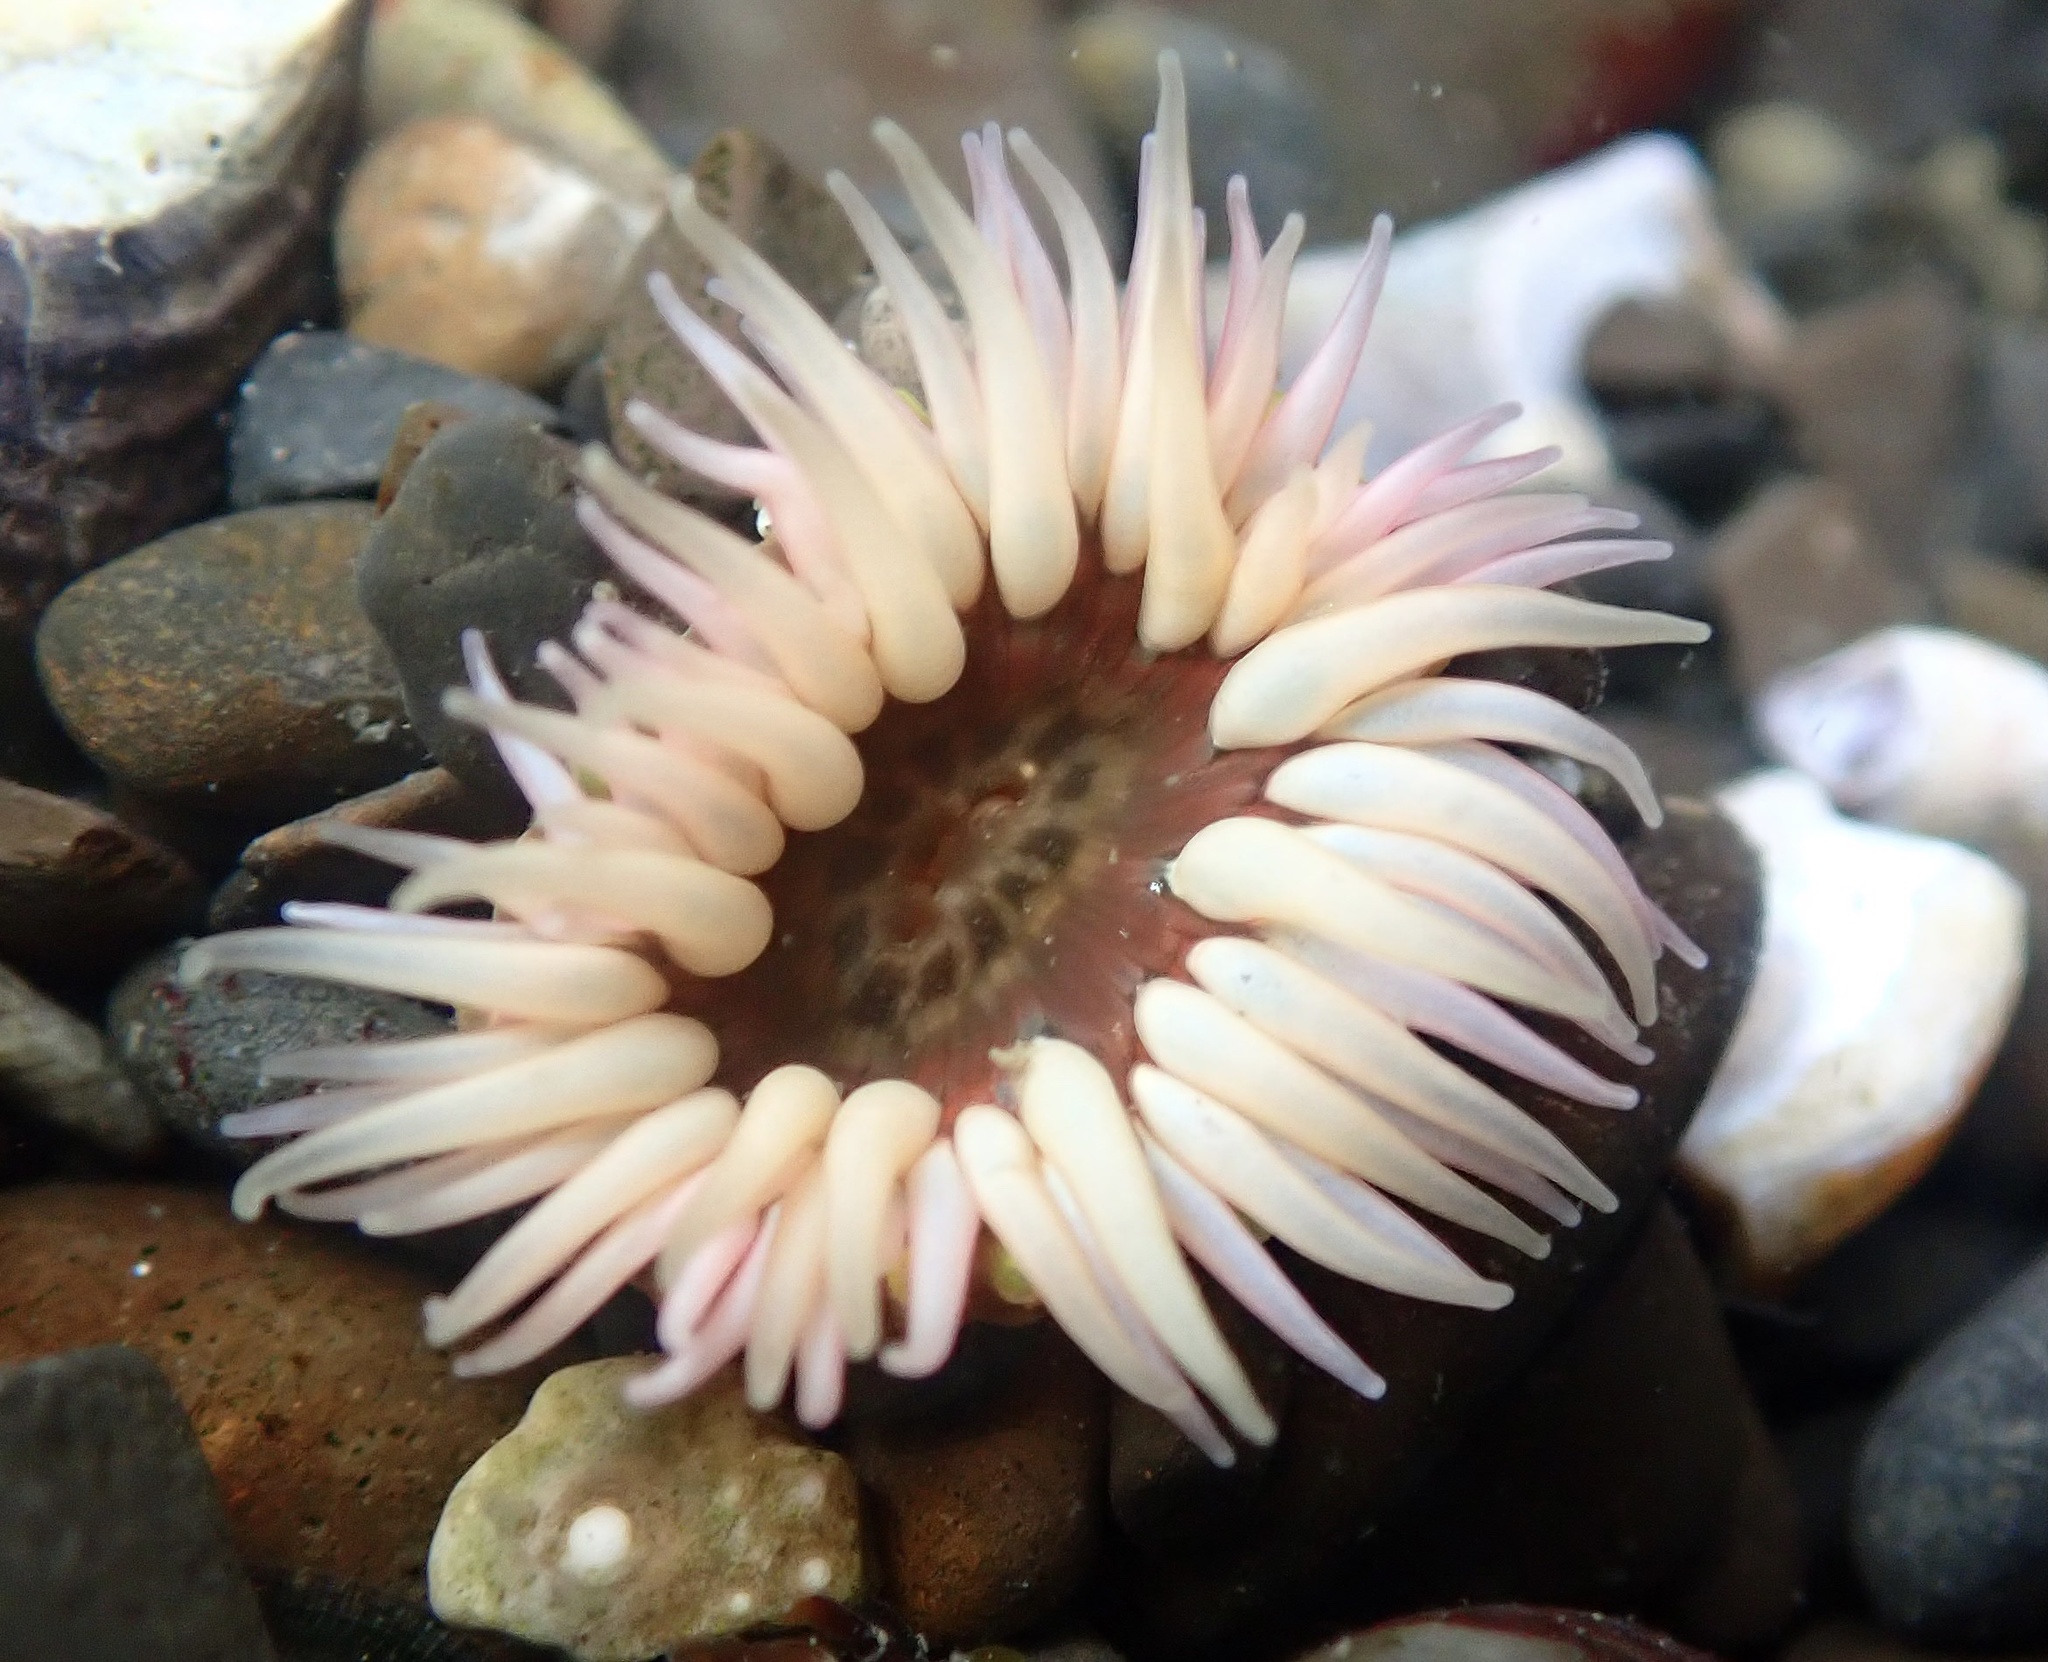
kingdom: Animalia
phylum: Cnidaria
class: Anthozoa
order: Actiniaria
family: Actiniidae
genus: Anthopleura
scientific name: Anthopleura artemisia
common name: Buried sea anemone
